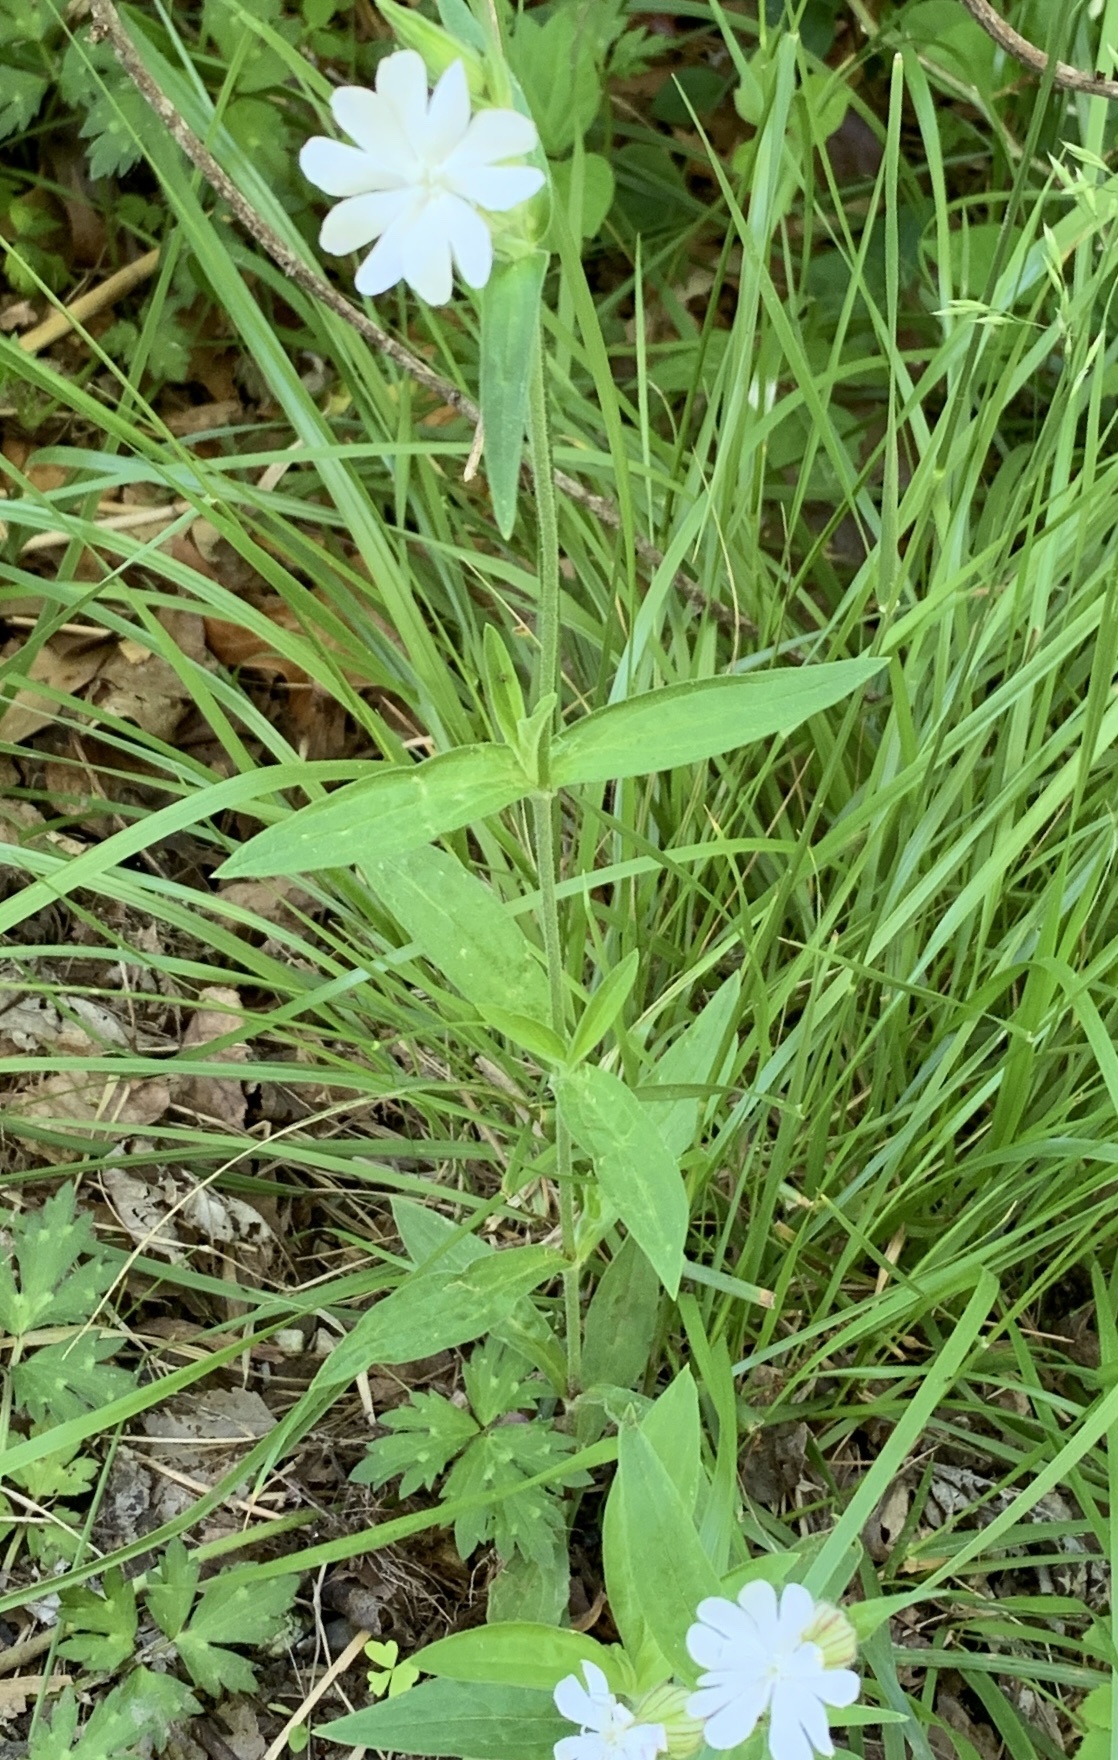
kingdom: Plantae
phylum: Tracheophyta
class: Magnoliopsida
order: Caryophyllales
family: Caryophyllaceae
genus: Silene
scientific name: Silene latifolia
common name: White campion
